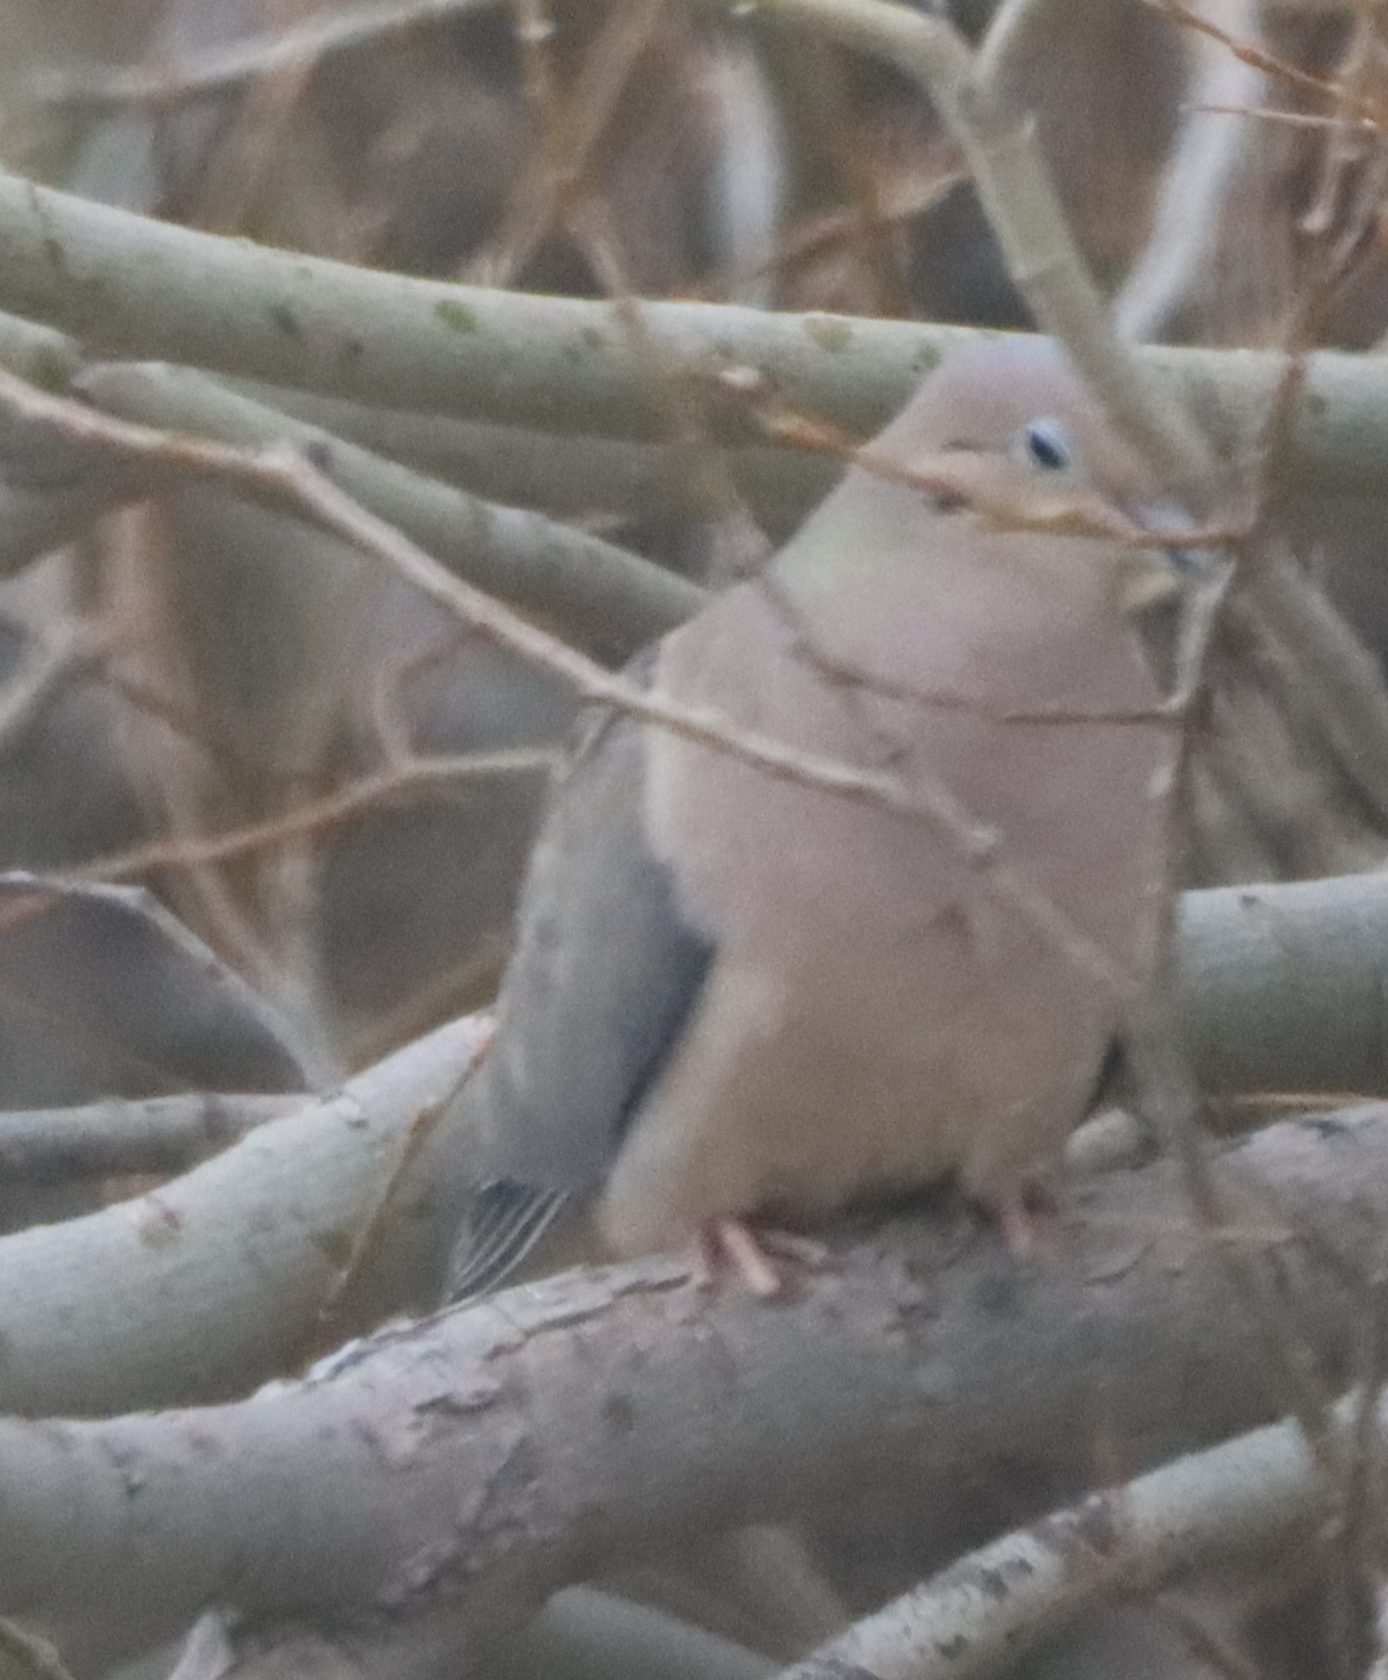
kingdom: Animalia
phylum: Chordata
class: Aves
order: Columbiformes
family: Columbidae
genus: Zenaida
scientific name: Zenaida macroura
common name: Mourning dove
